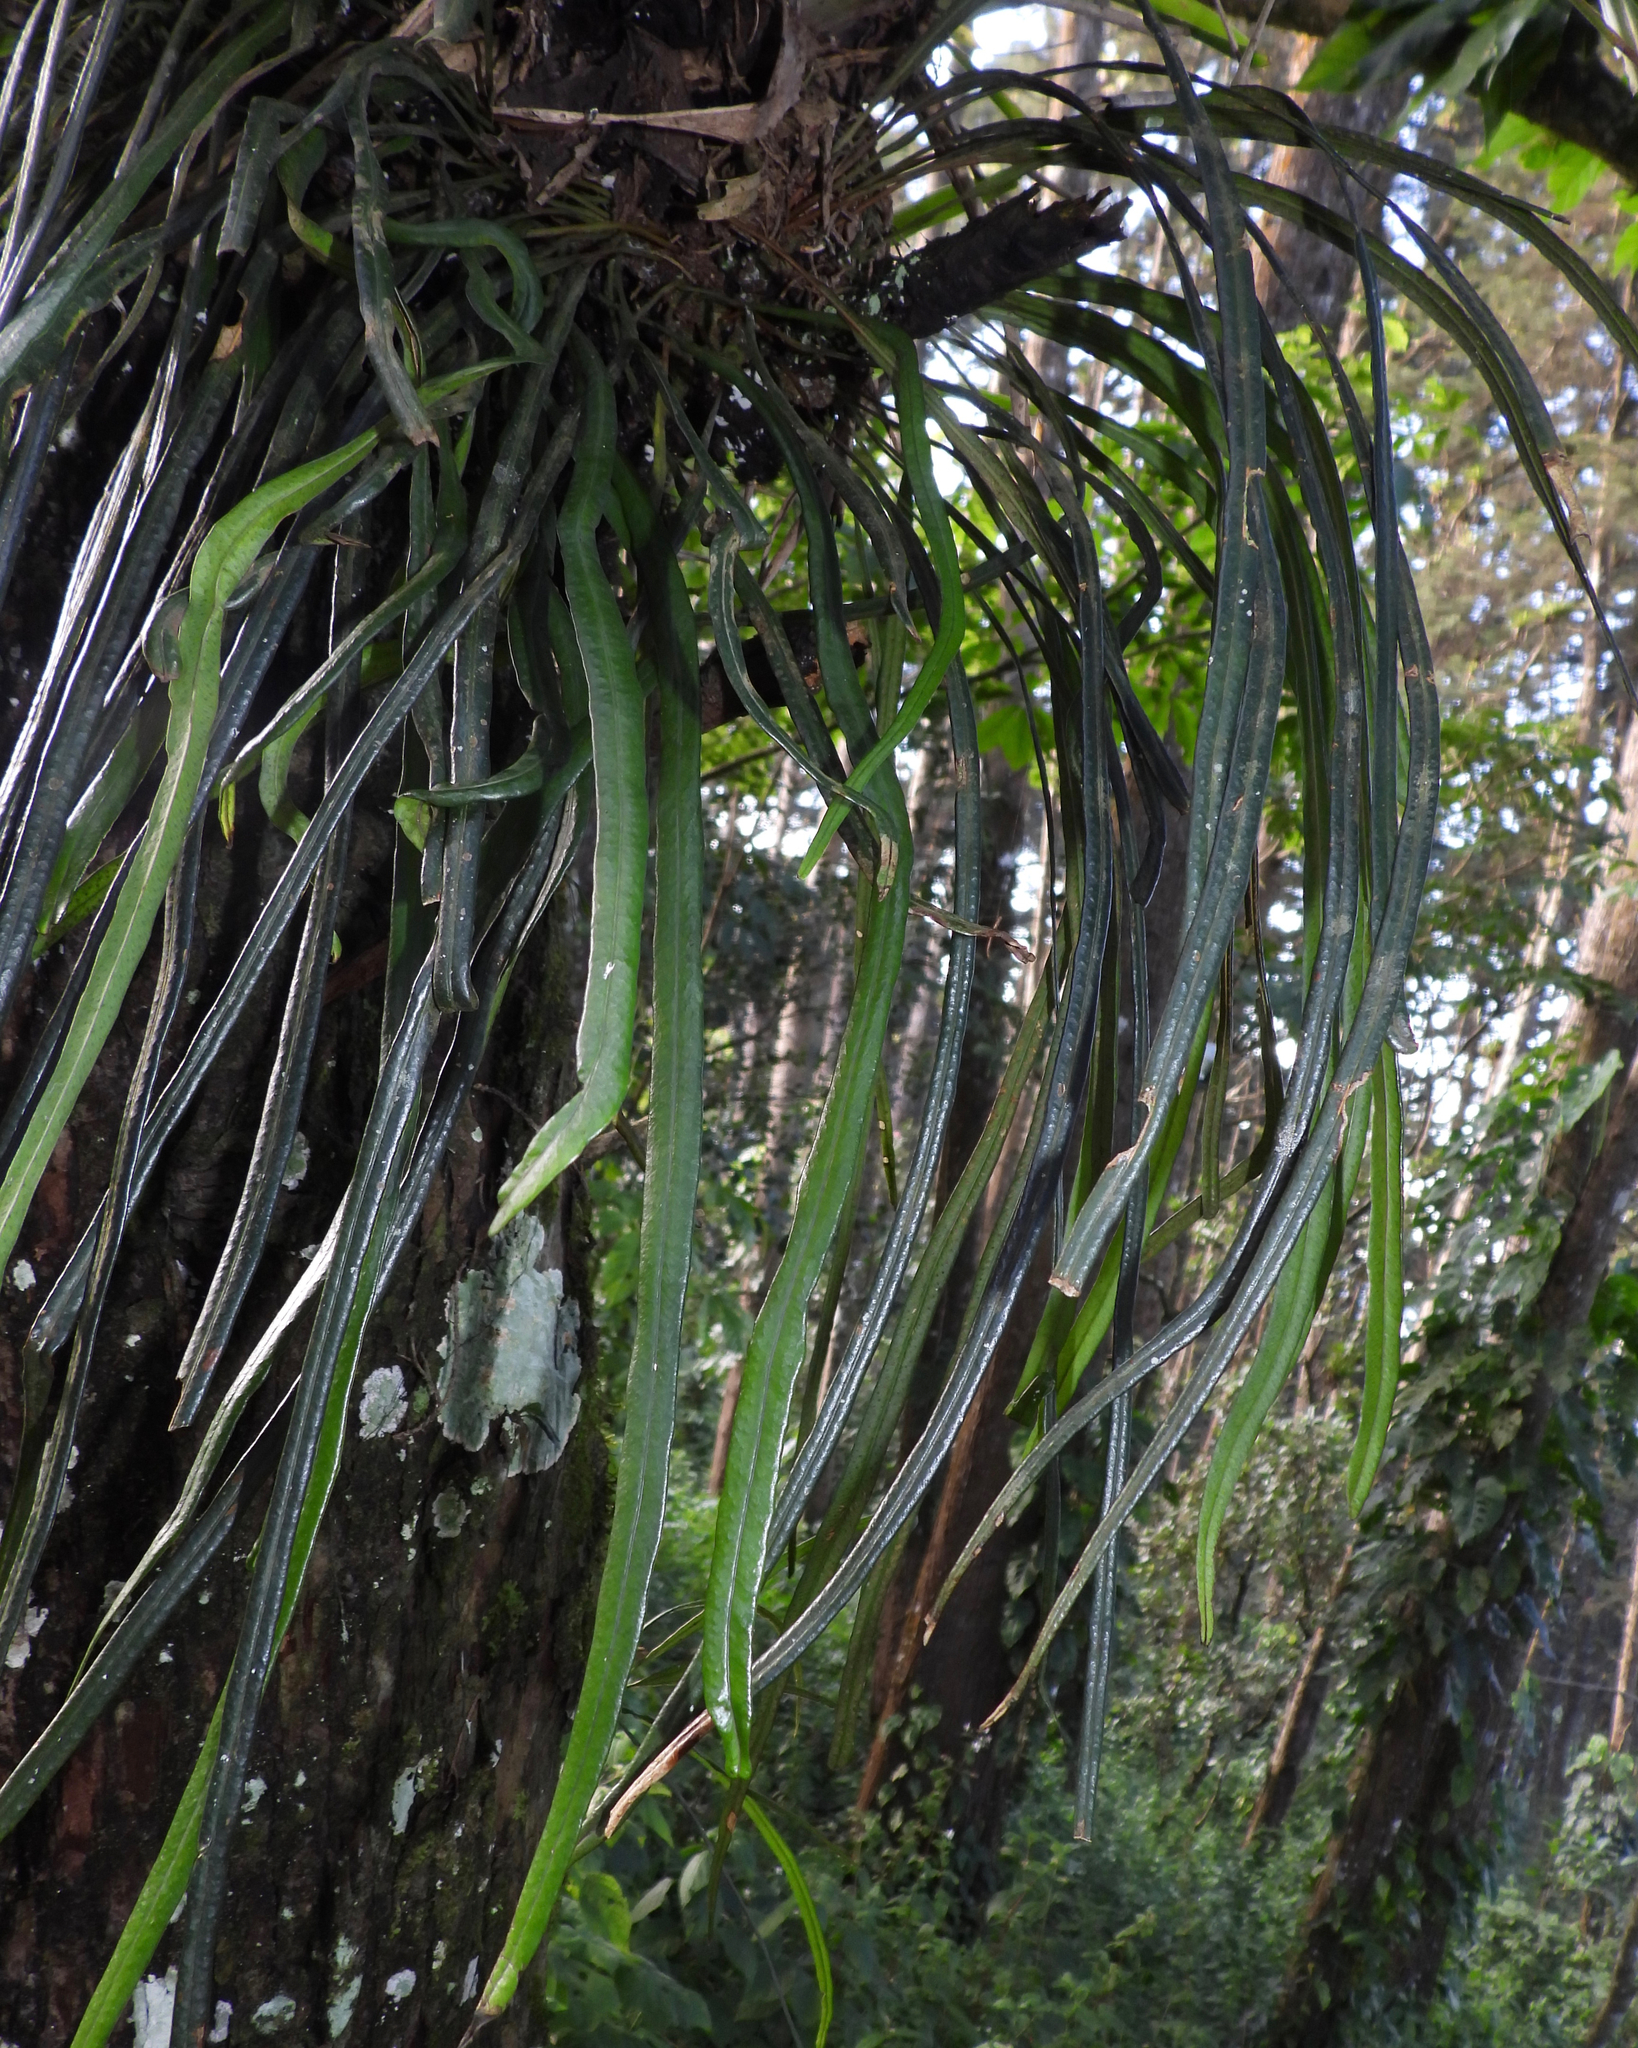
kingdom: Plantae
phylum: Tracheophyta
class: Polypodiopsida
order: Polypodiales
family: Polypodiaceae
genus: Campyloneurum
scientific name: Campyloneurum angustifolium
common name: Narrow-leaf strap fern
